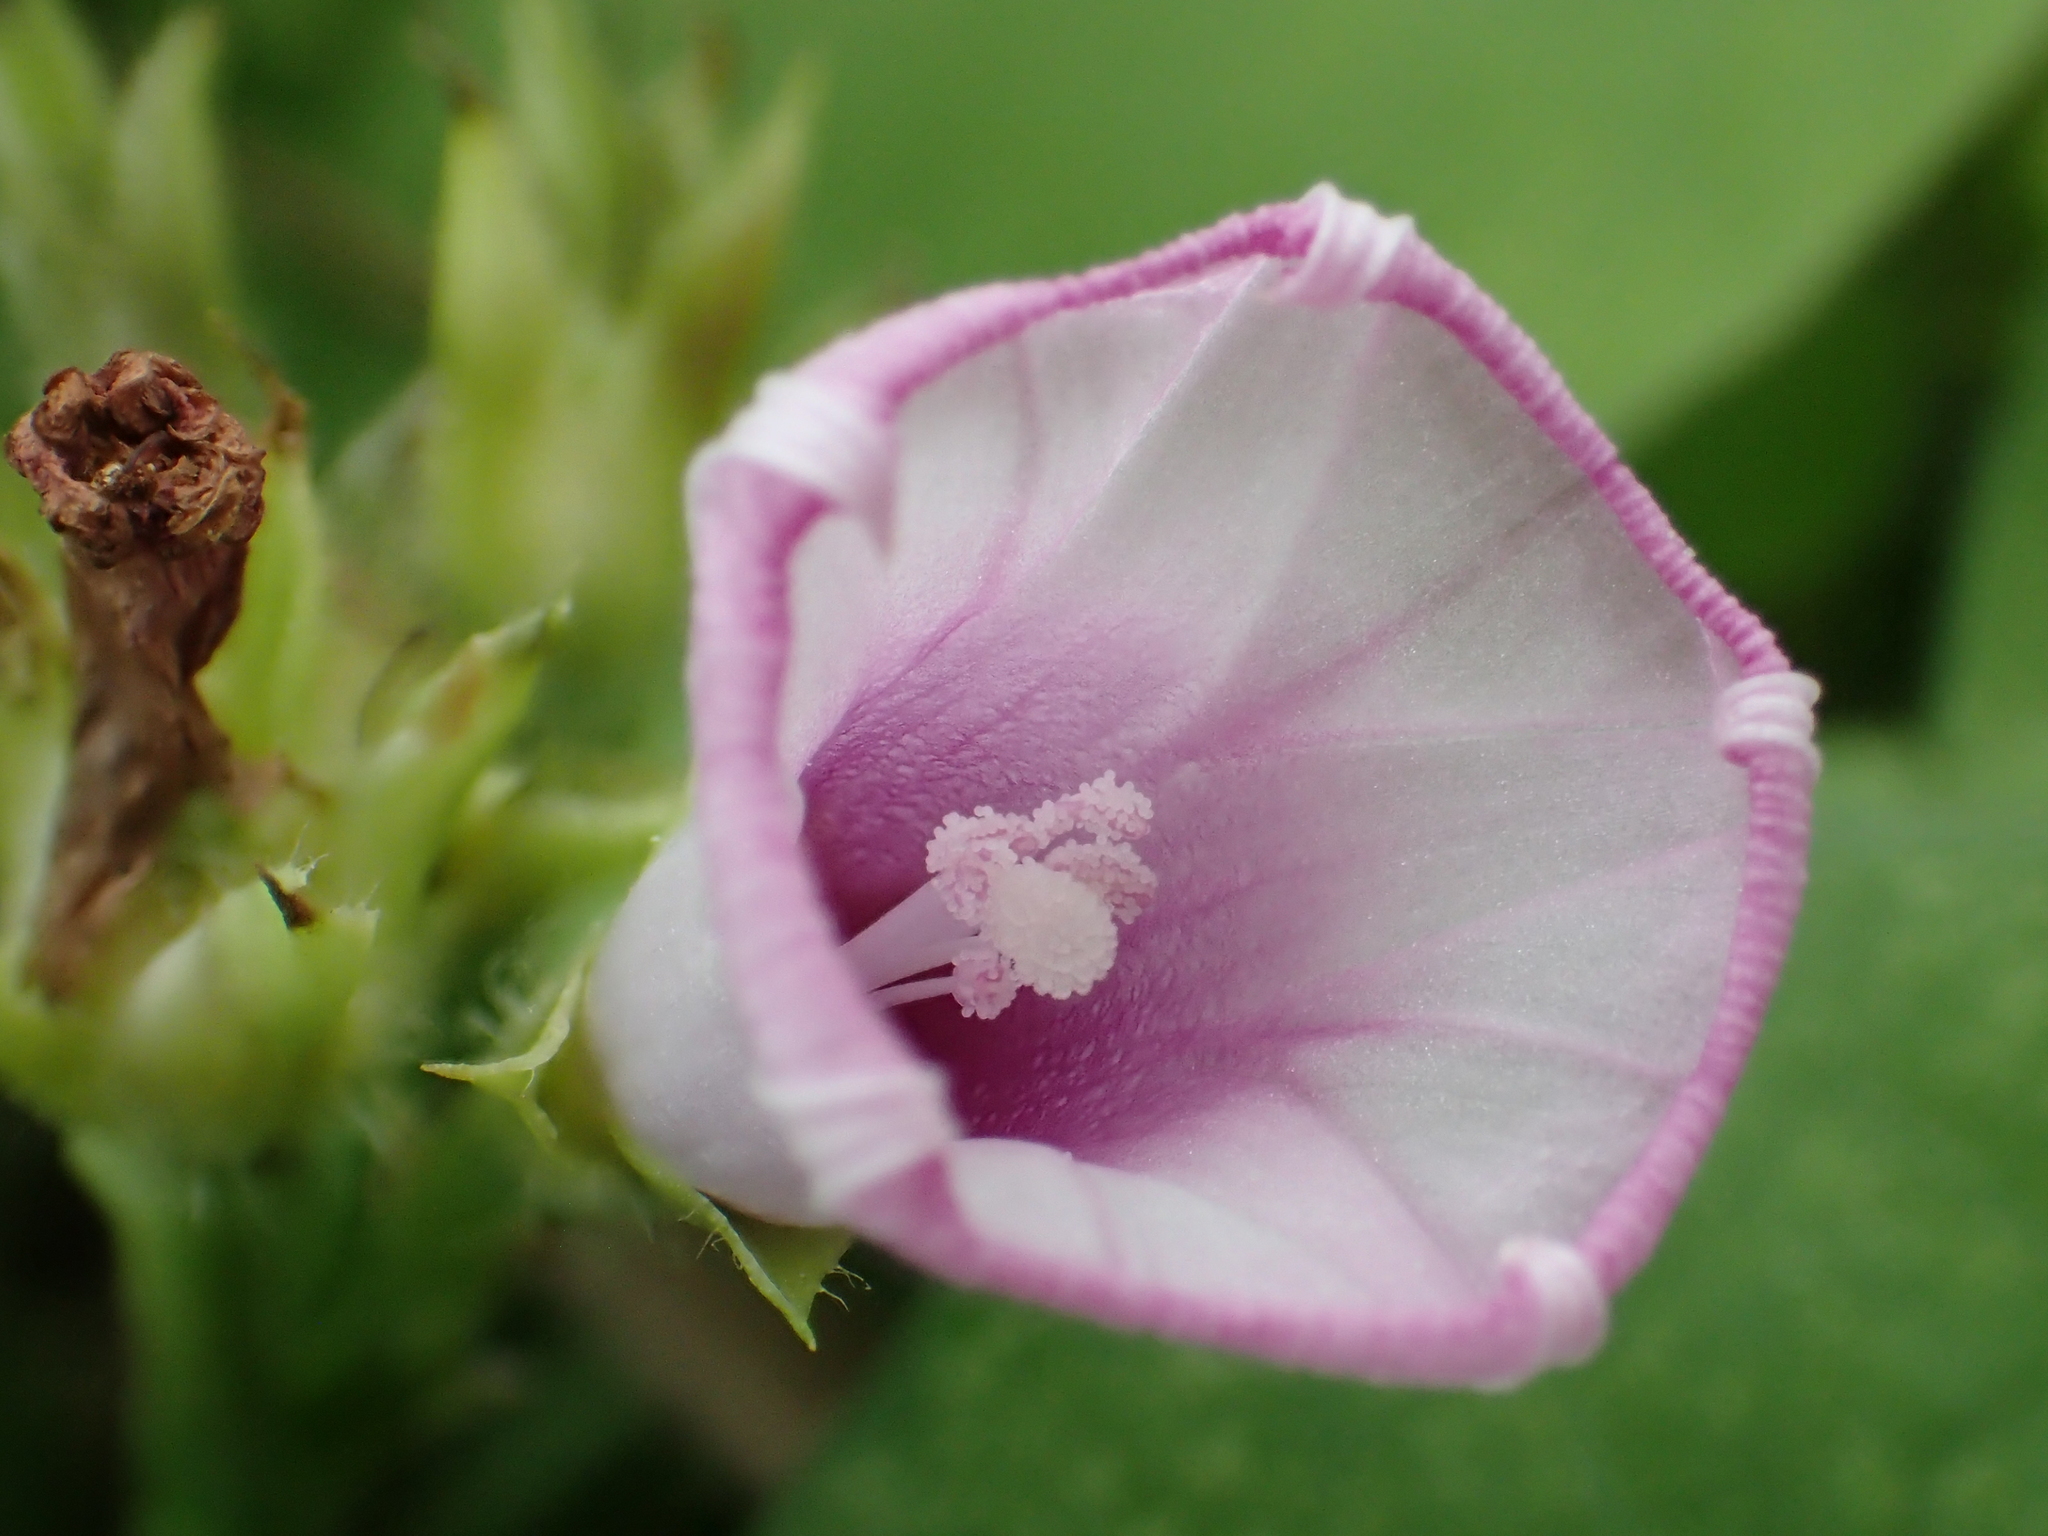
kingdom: Plantae
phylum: Tracheophyta
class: Magnoliopsida
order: Solanales
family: Convolvulaceae
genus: Ipomoea
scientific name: Ipomoea triloba
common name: Little-bell
